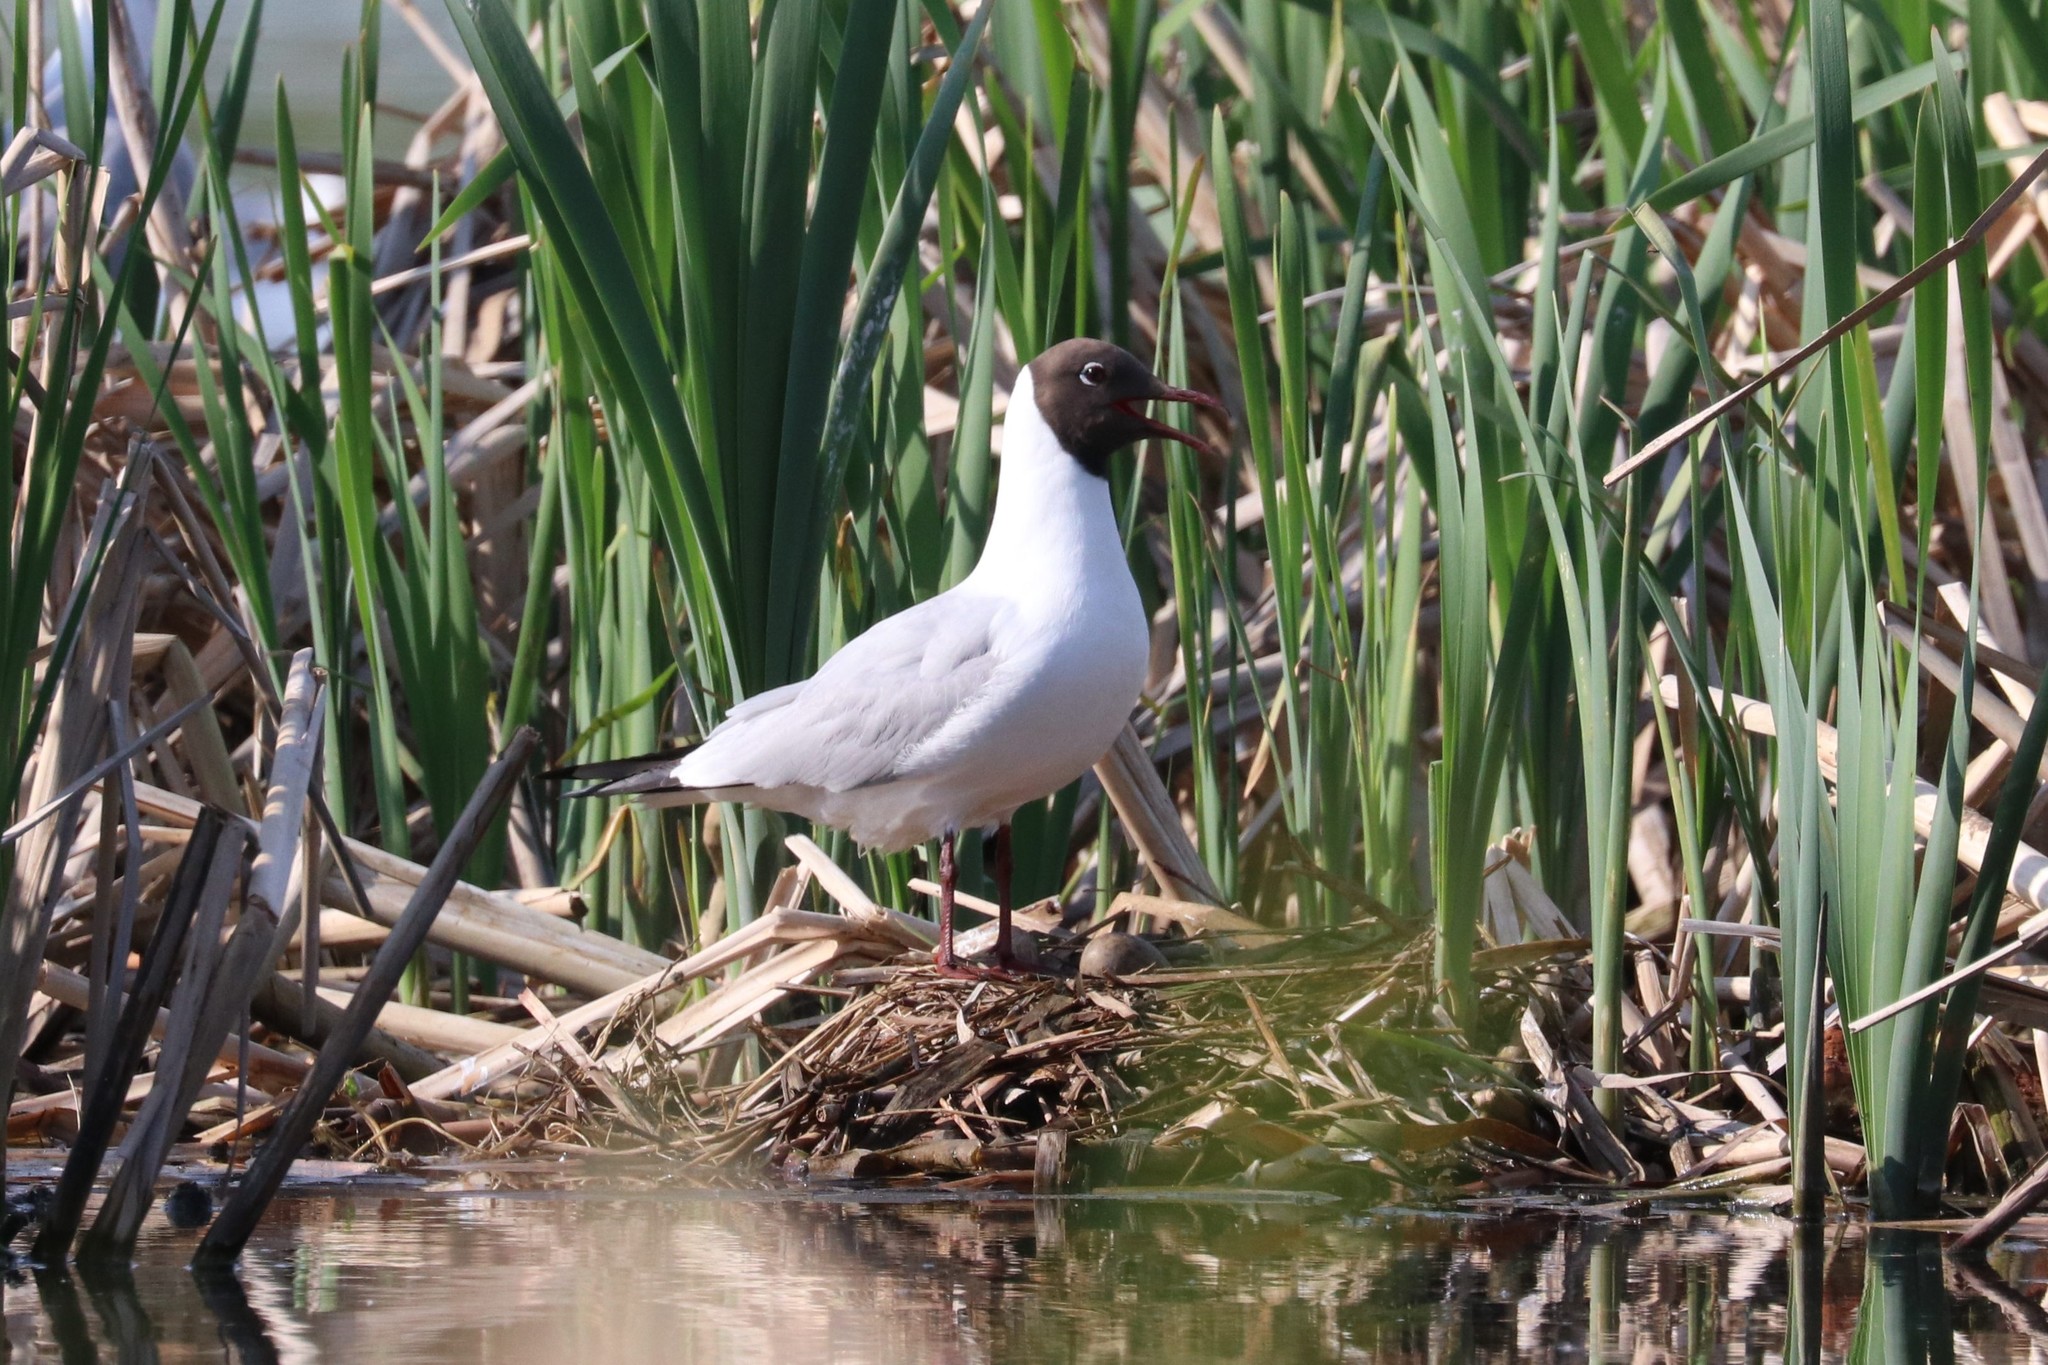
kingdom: Animalia
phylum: Chordata
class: Aves
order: Charadriiformes
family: Laridae
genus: Chroicocephalus
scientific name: Chroicocephalus ridibundus
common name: Black-headed gull
